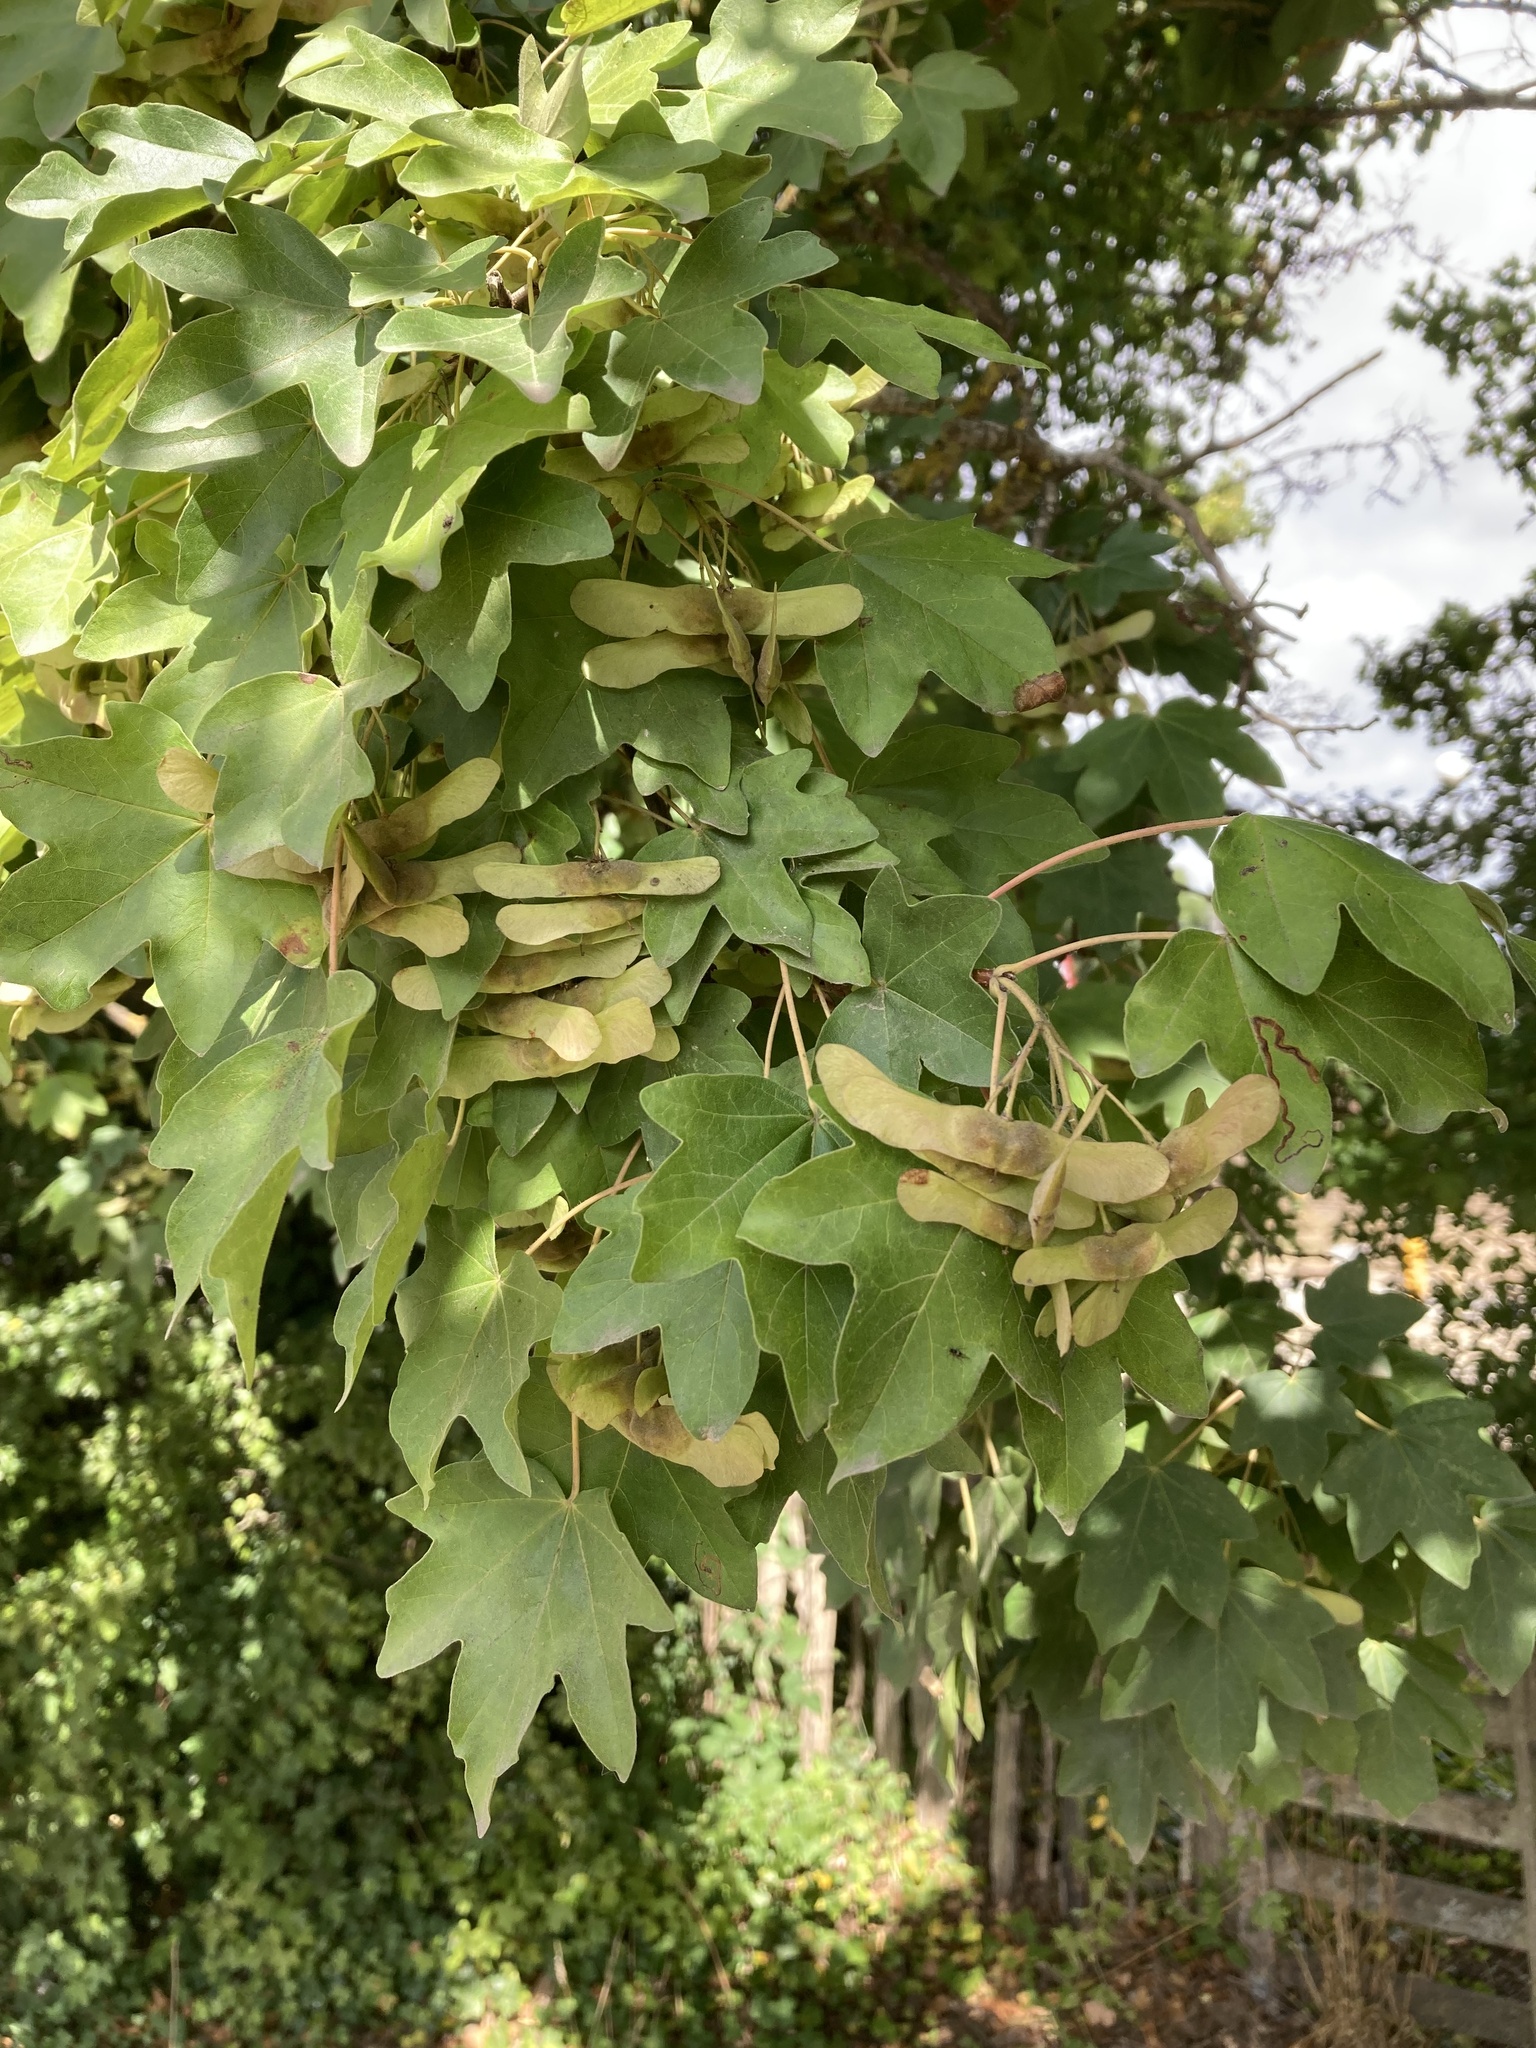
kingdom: Plantae
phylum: Tracheophyta
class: Magnoliopsida
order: Sapindales
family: Sapindaceae
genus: Acer
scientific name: Acer campestre
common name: Field maple
